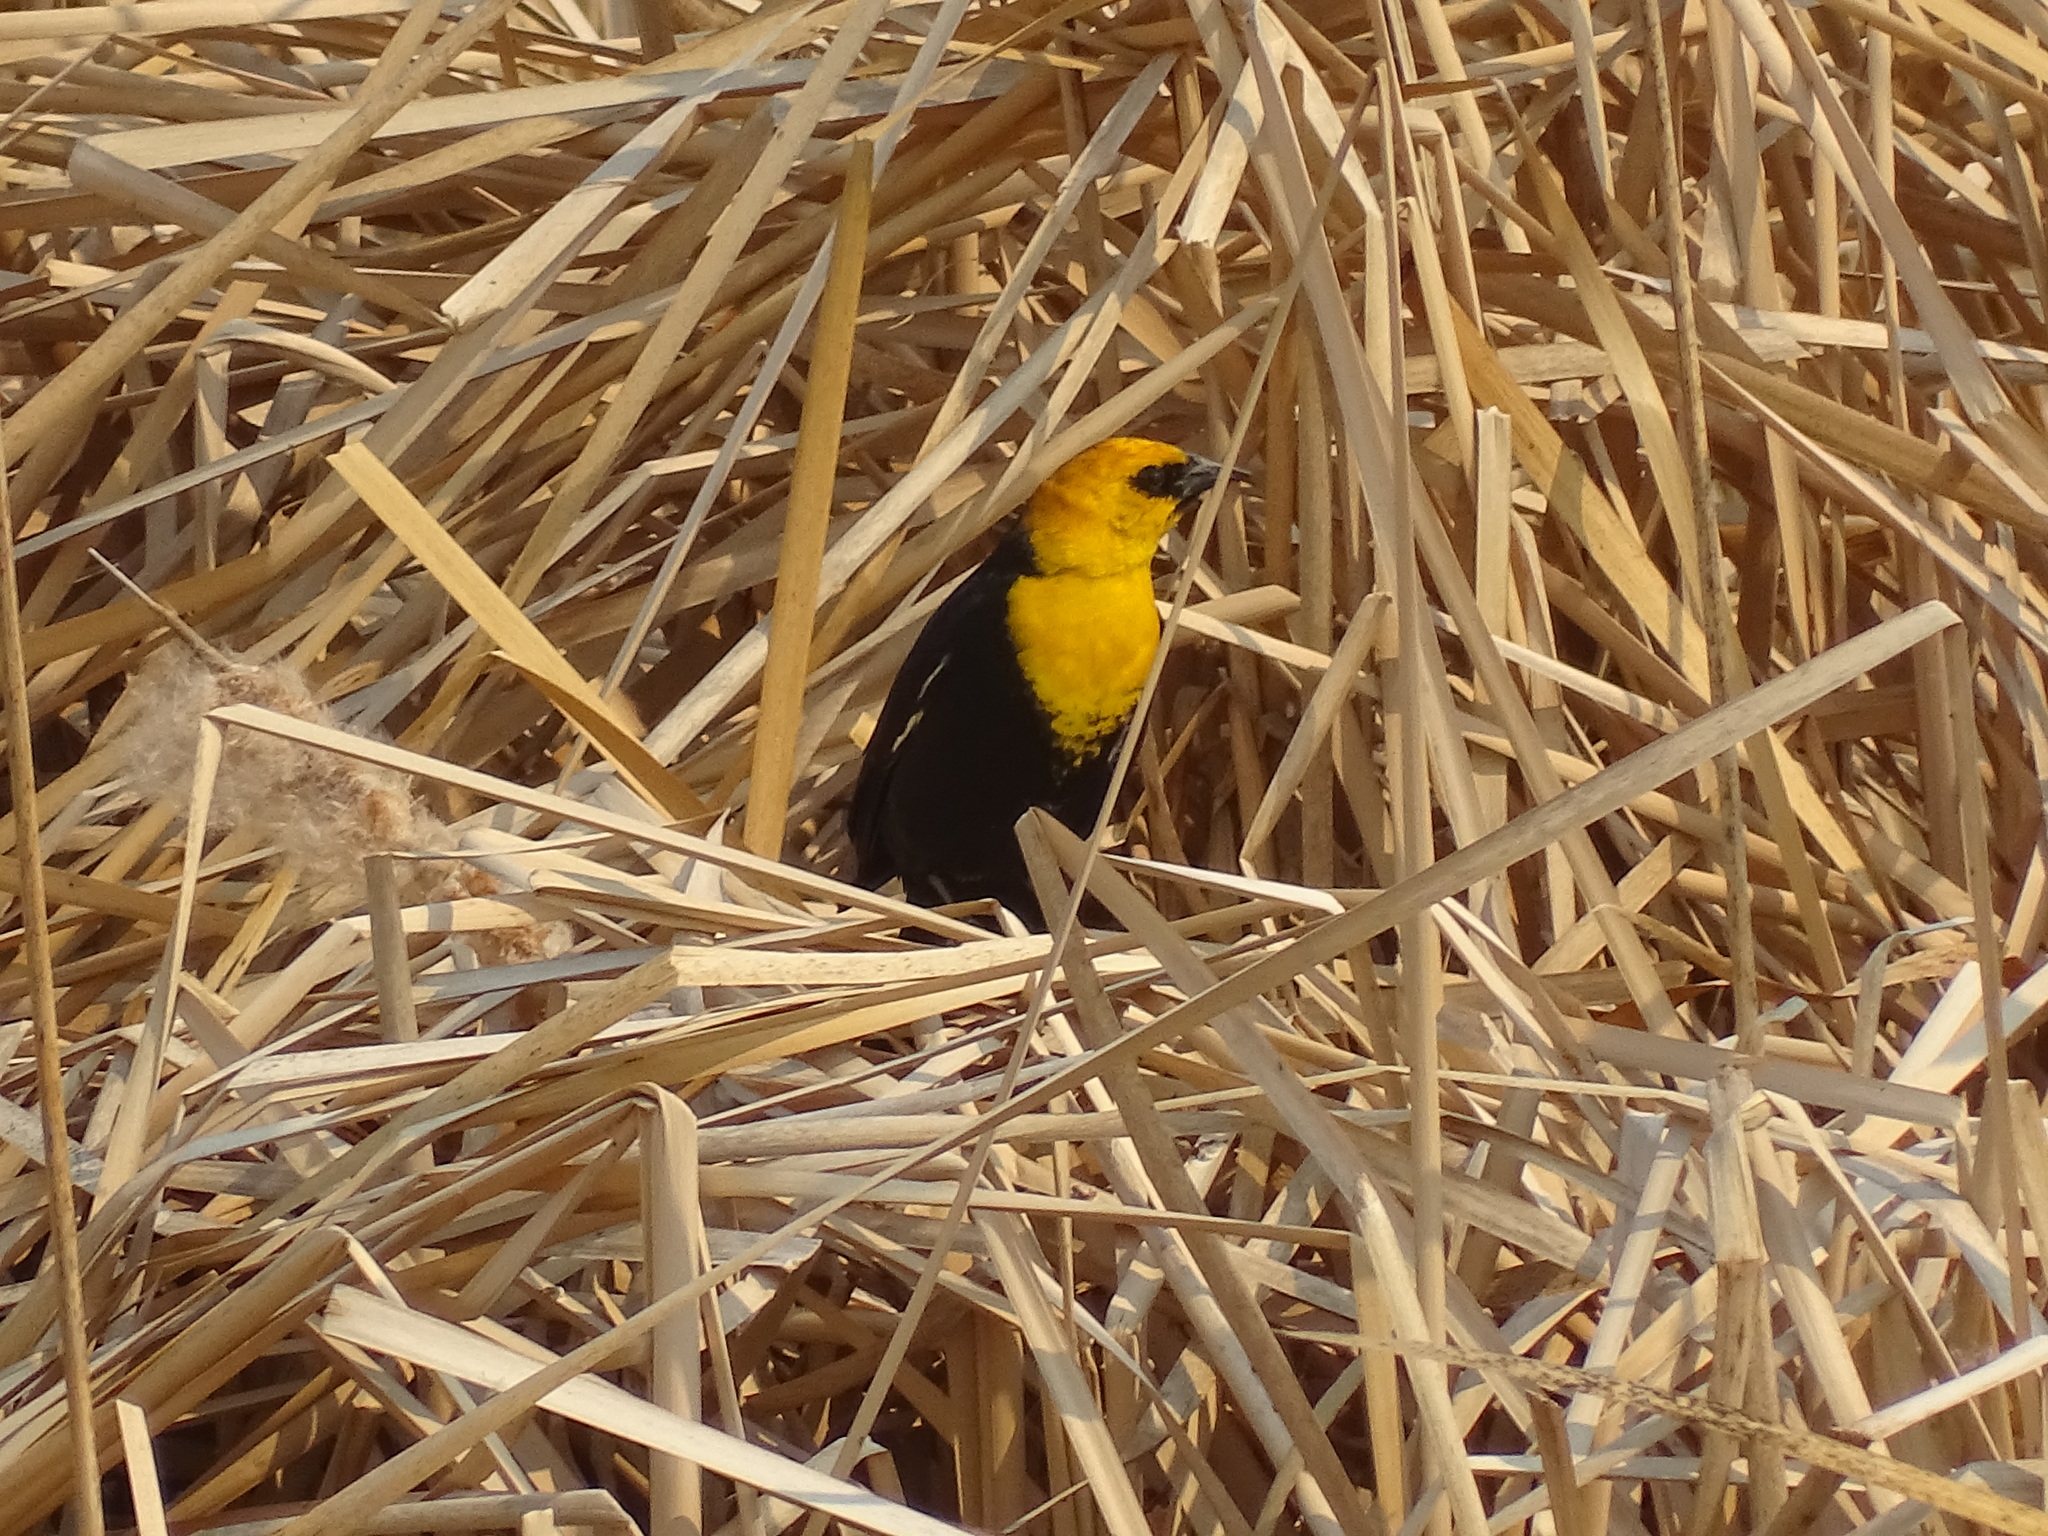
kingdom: Animalia
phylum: Chordata
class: Aves
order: Passeriformes
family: Icteridae
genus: Xanthocephalus
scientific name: Xanthocephalus xanthocephalus
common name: Yellow-headed blackbird
